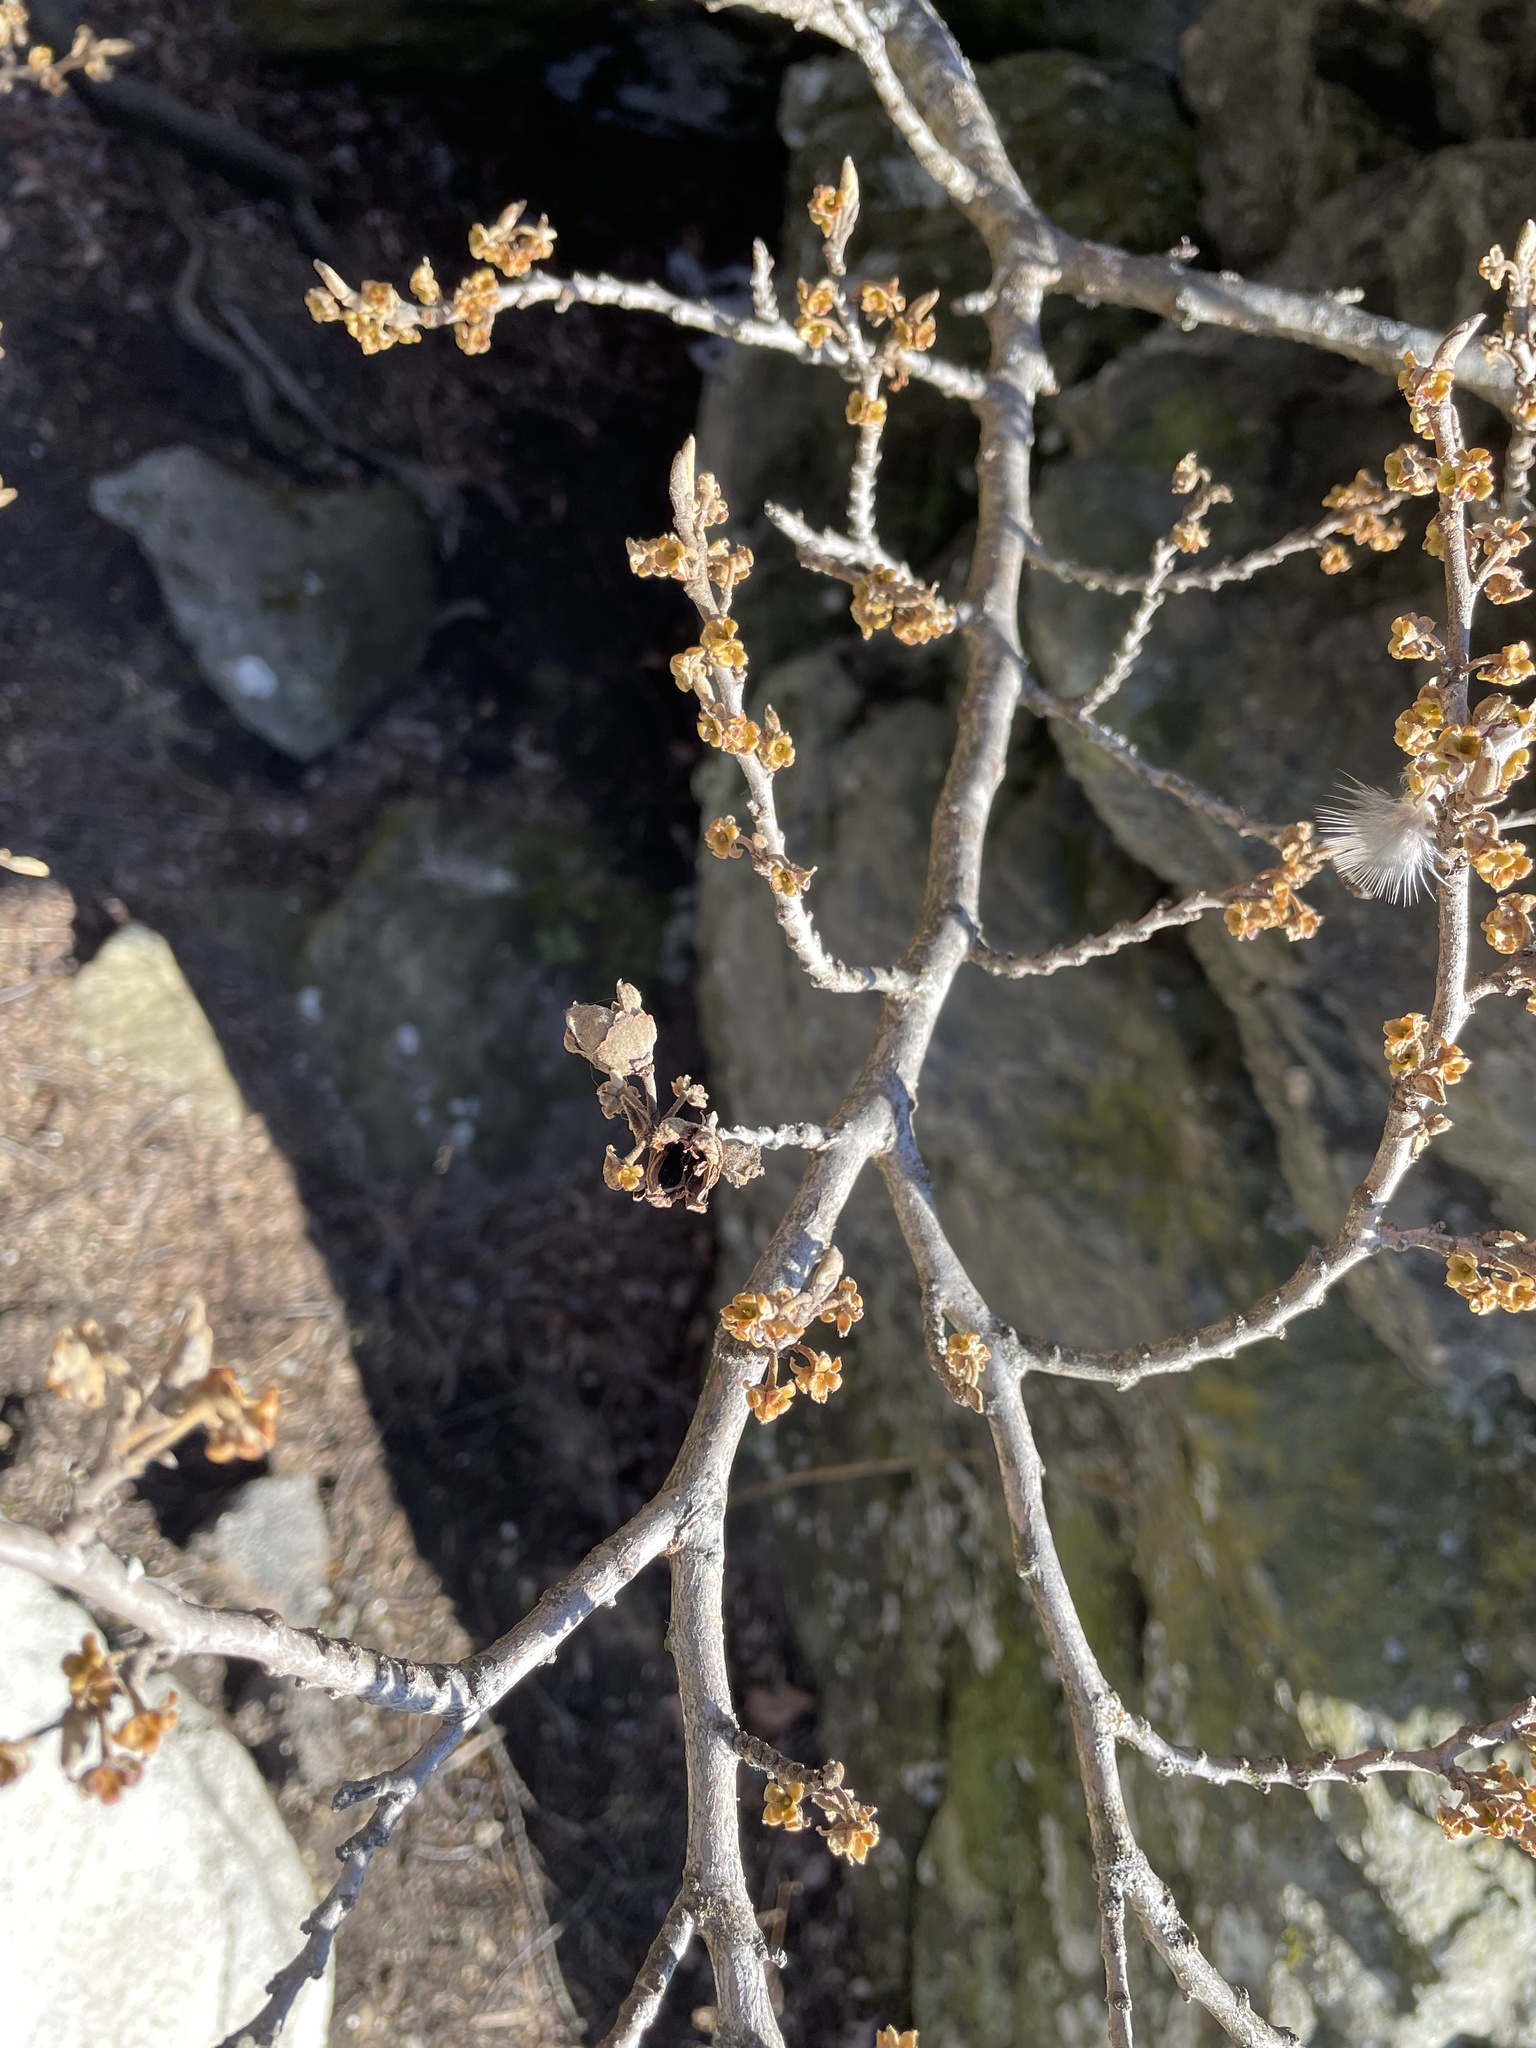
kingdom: Plantae
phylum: Tracheophyta
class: Magnoliopsida
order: Saxifragales
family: Hamamelidaceae
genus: Hamamelis
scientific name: Hamamelis virginiana
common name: Witch-hazel
